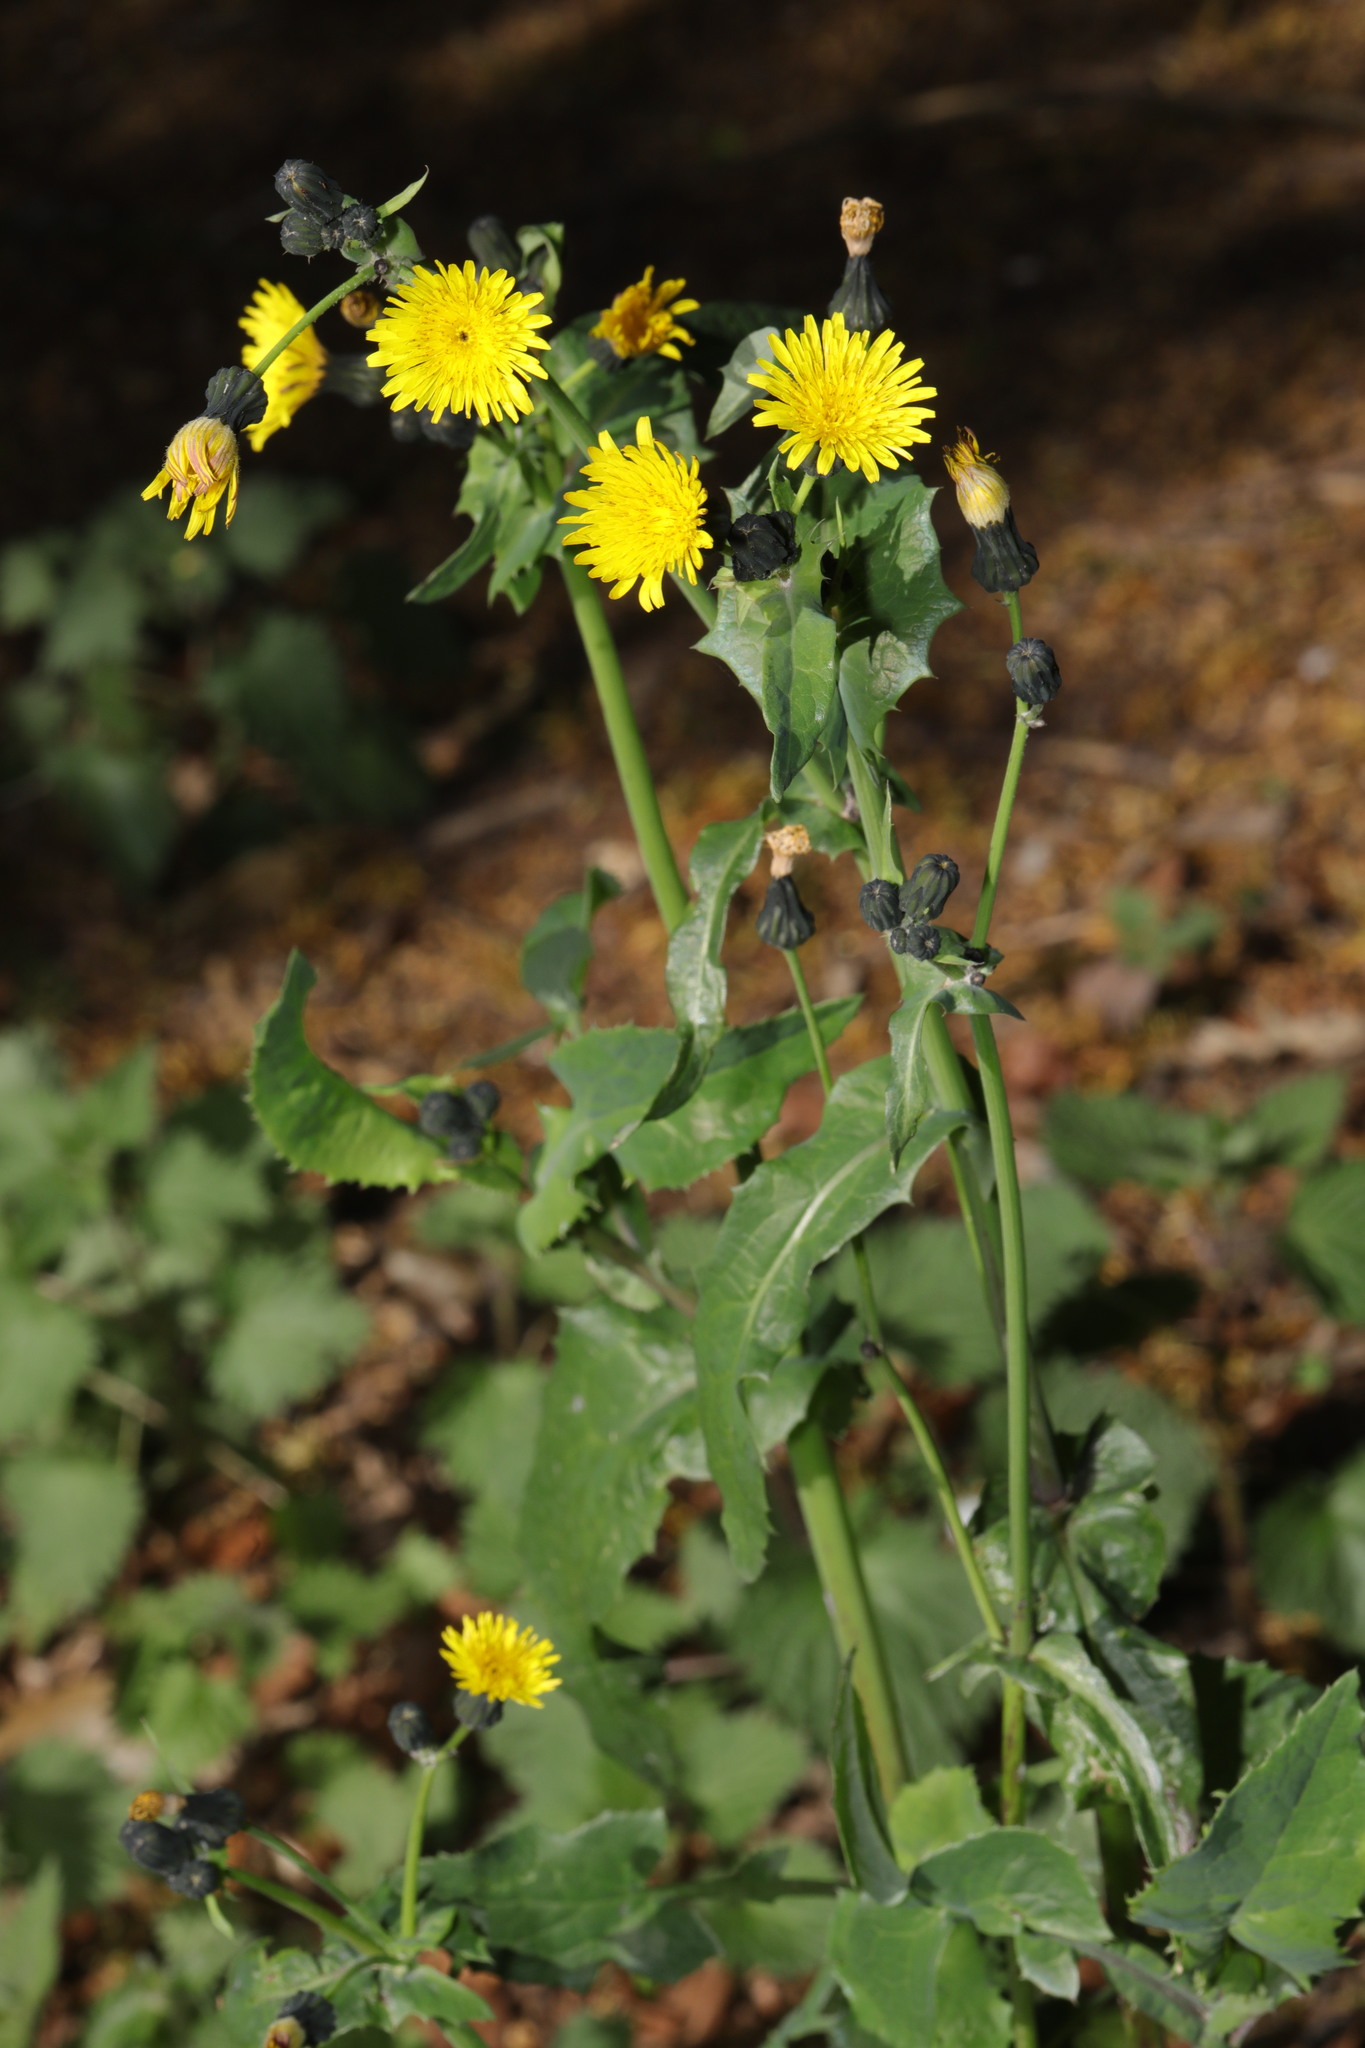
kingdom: Plantae
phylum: Tracheophyta
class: Magnoliopsida
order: Asterales
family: Asteraceae
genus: Sonchus
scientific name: Sonchus oleraceus
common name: Common sowthistle
